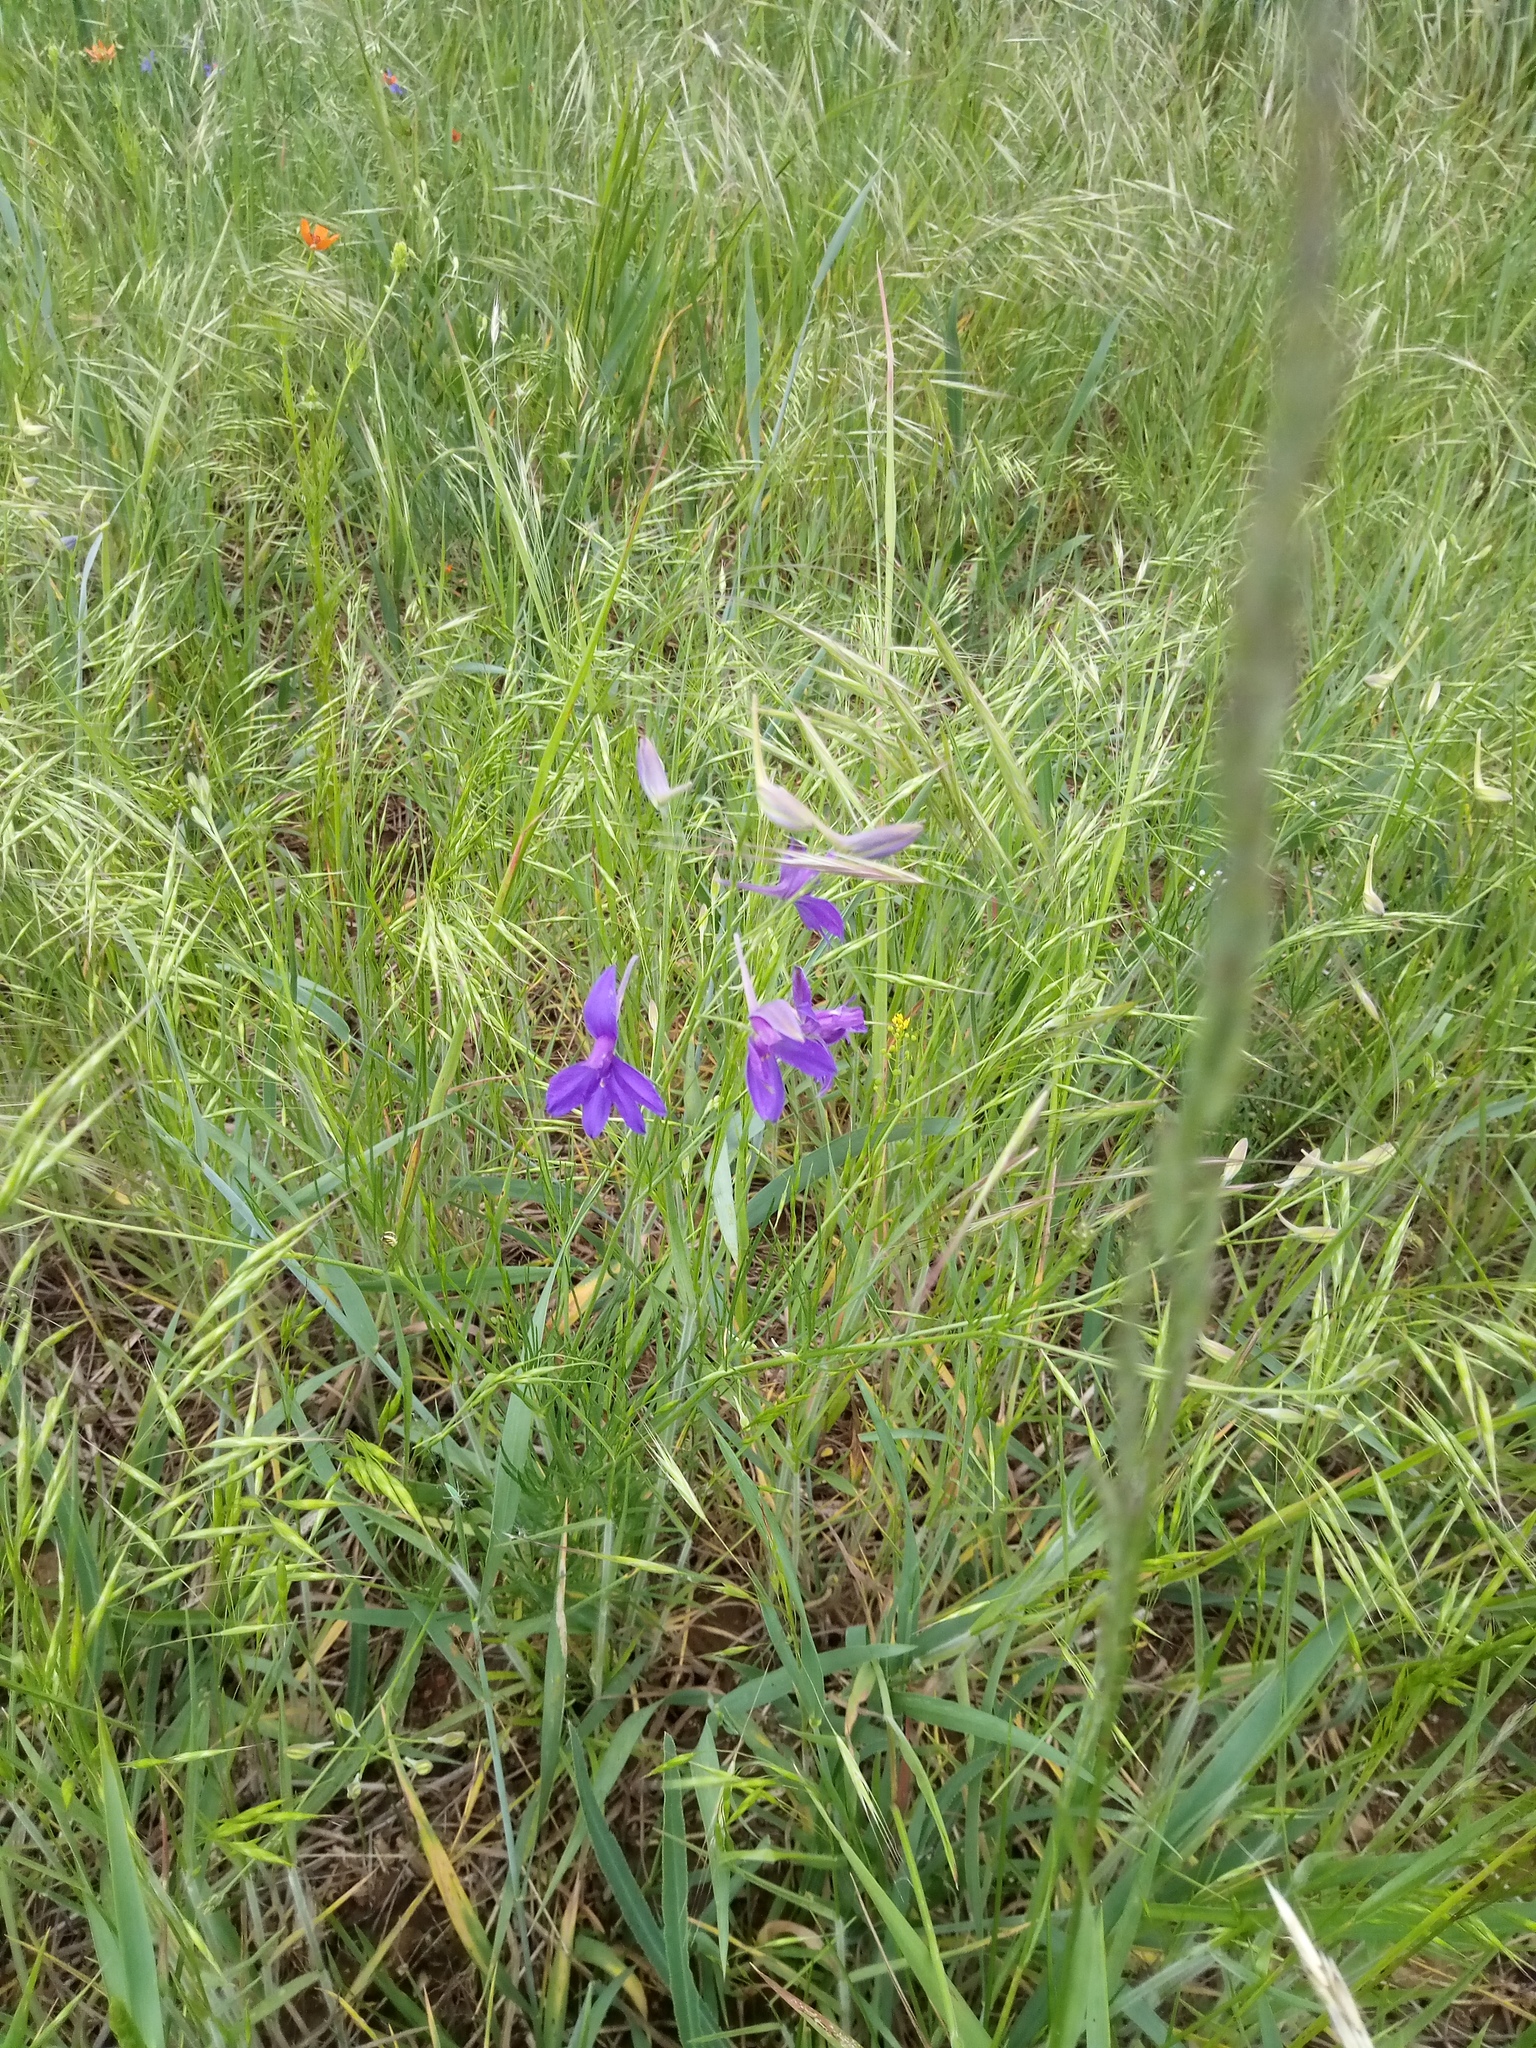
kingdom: Plantae
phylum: Tracheophyta
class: Magnoliopsida
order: Ranunculales
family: Ranunculaceae
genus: Delphinium
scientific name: Delphinium consolida
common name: Branching larkspur
